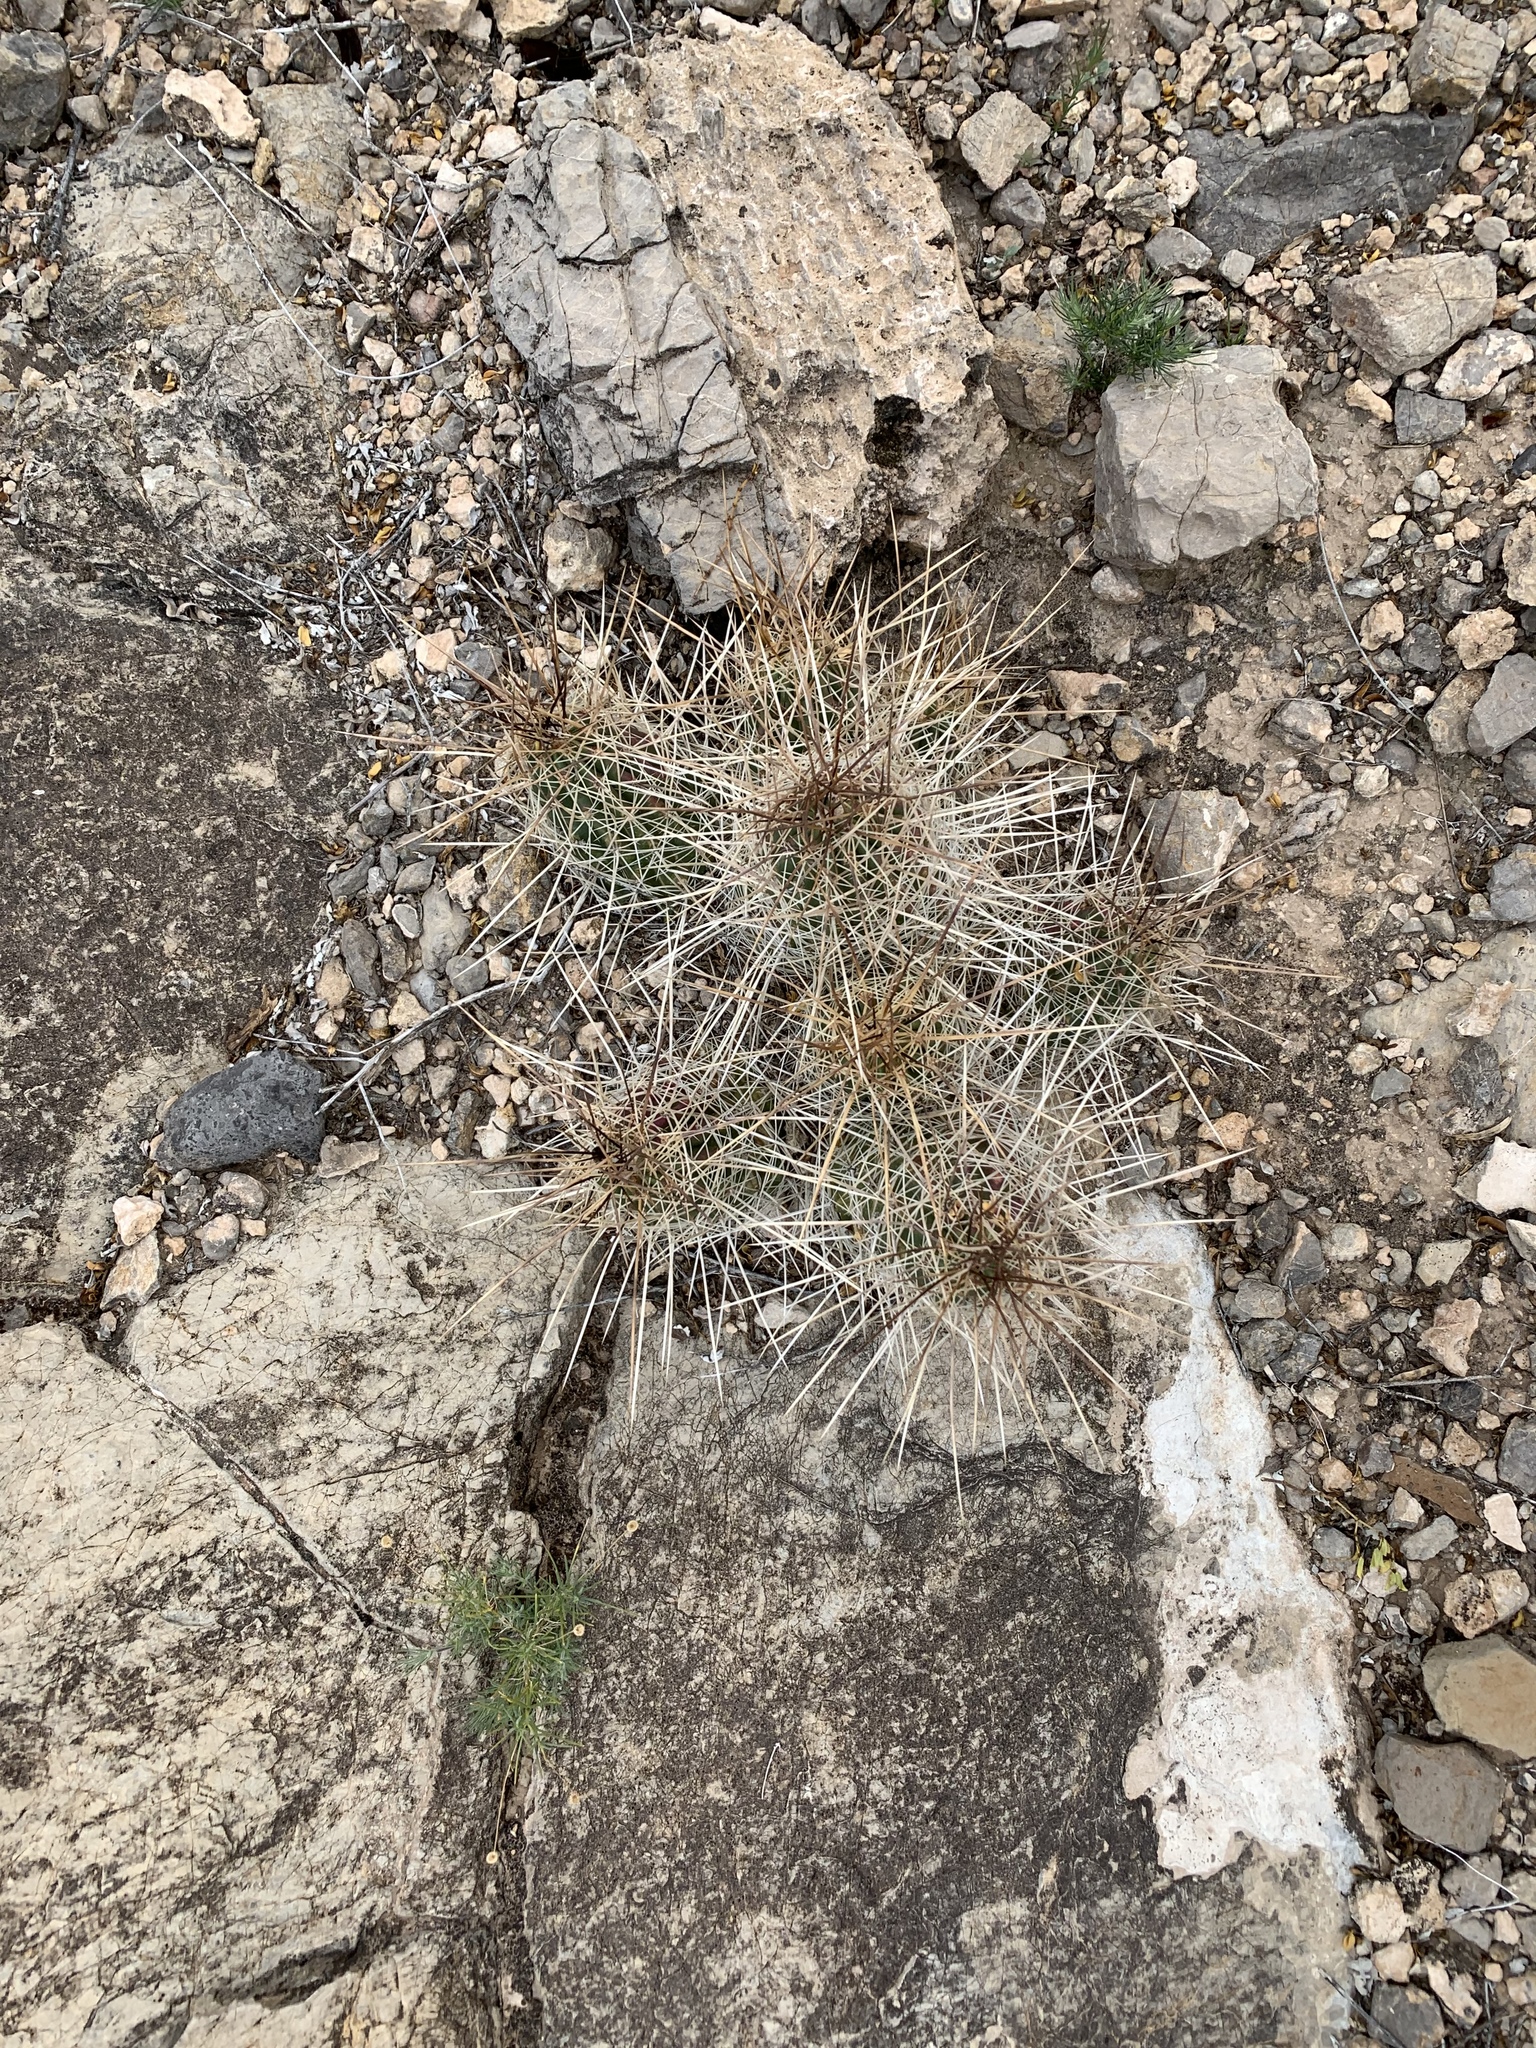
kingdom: Plantae
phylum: Tracheophyta
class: Magnoliopsida
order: Caryophyllales
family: Cactaceae
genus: Echinocereus
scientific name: Echinocereus stramineus
